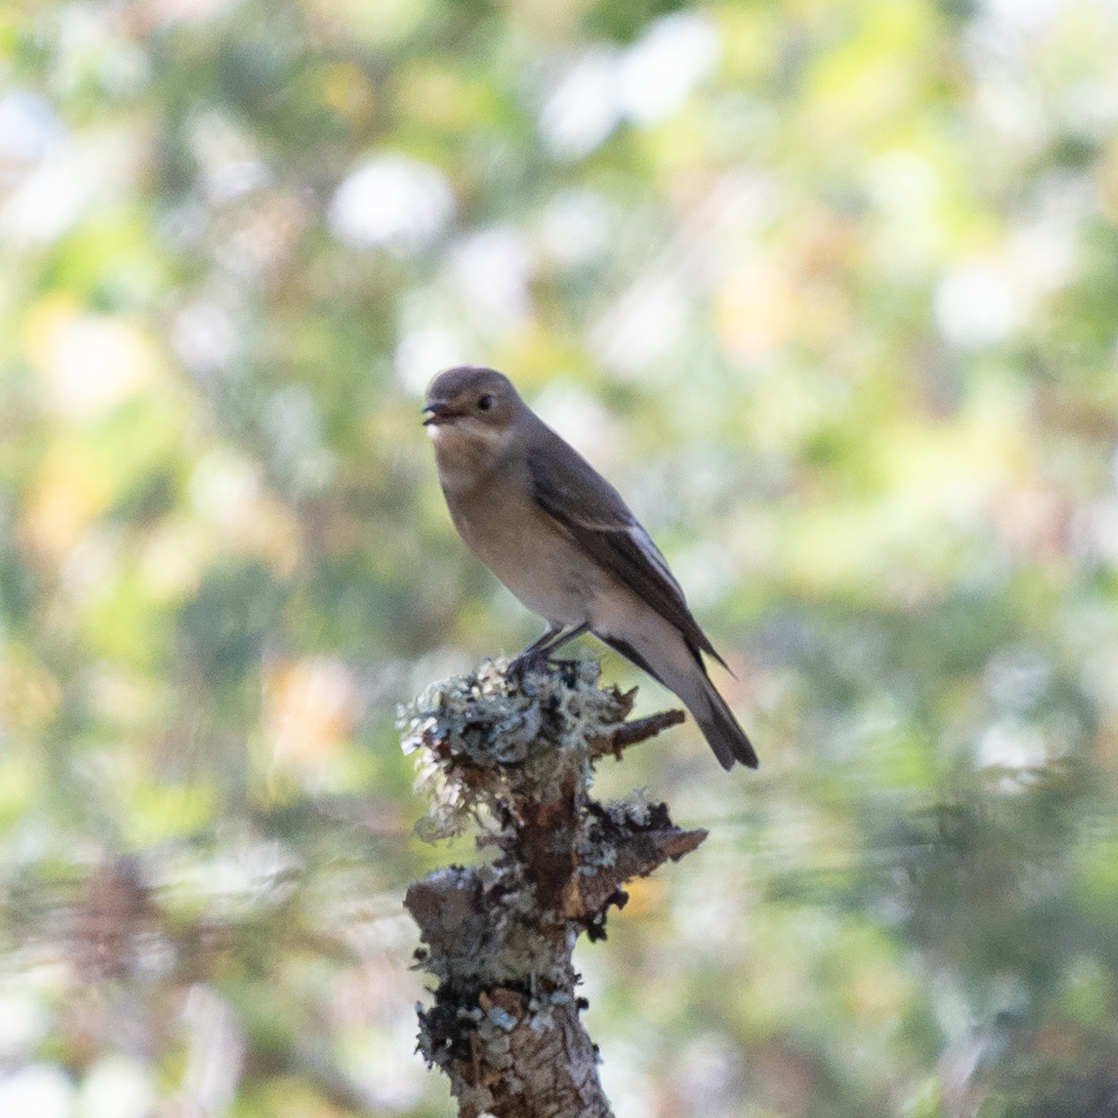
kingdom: Animalia
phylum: Chordata
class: Aves
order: Passeriformes
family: Muscicapidae
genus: Ficedula
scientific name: Ficedula hypoleuca
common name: European pied flycatcher
